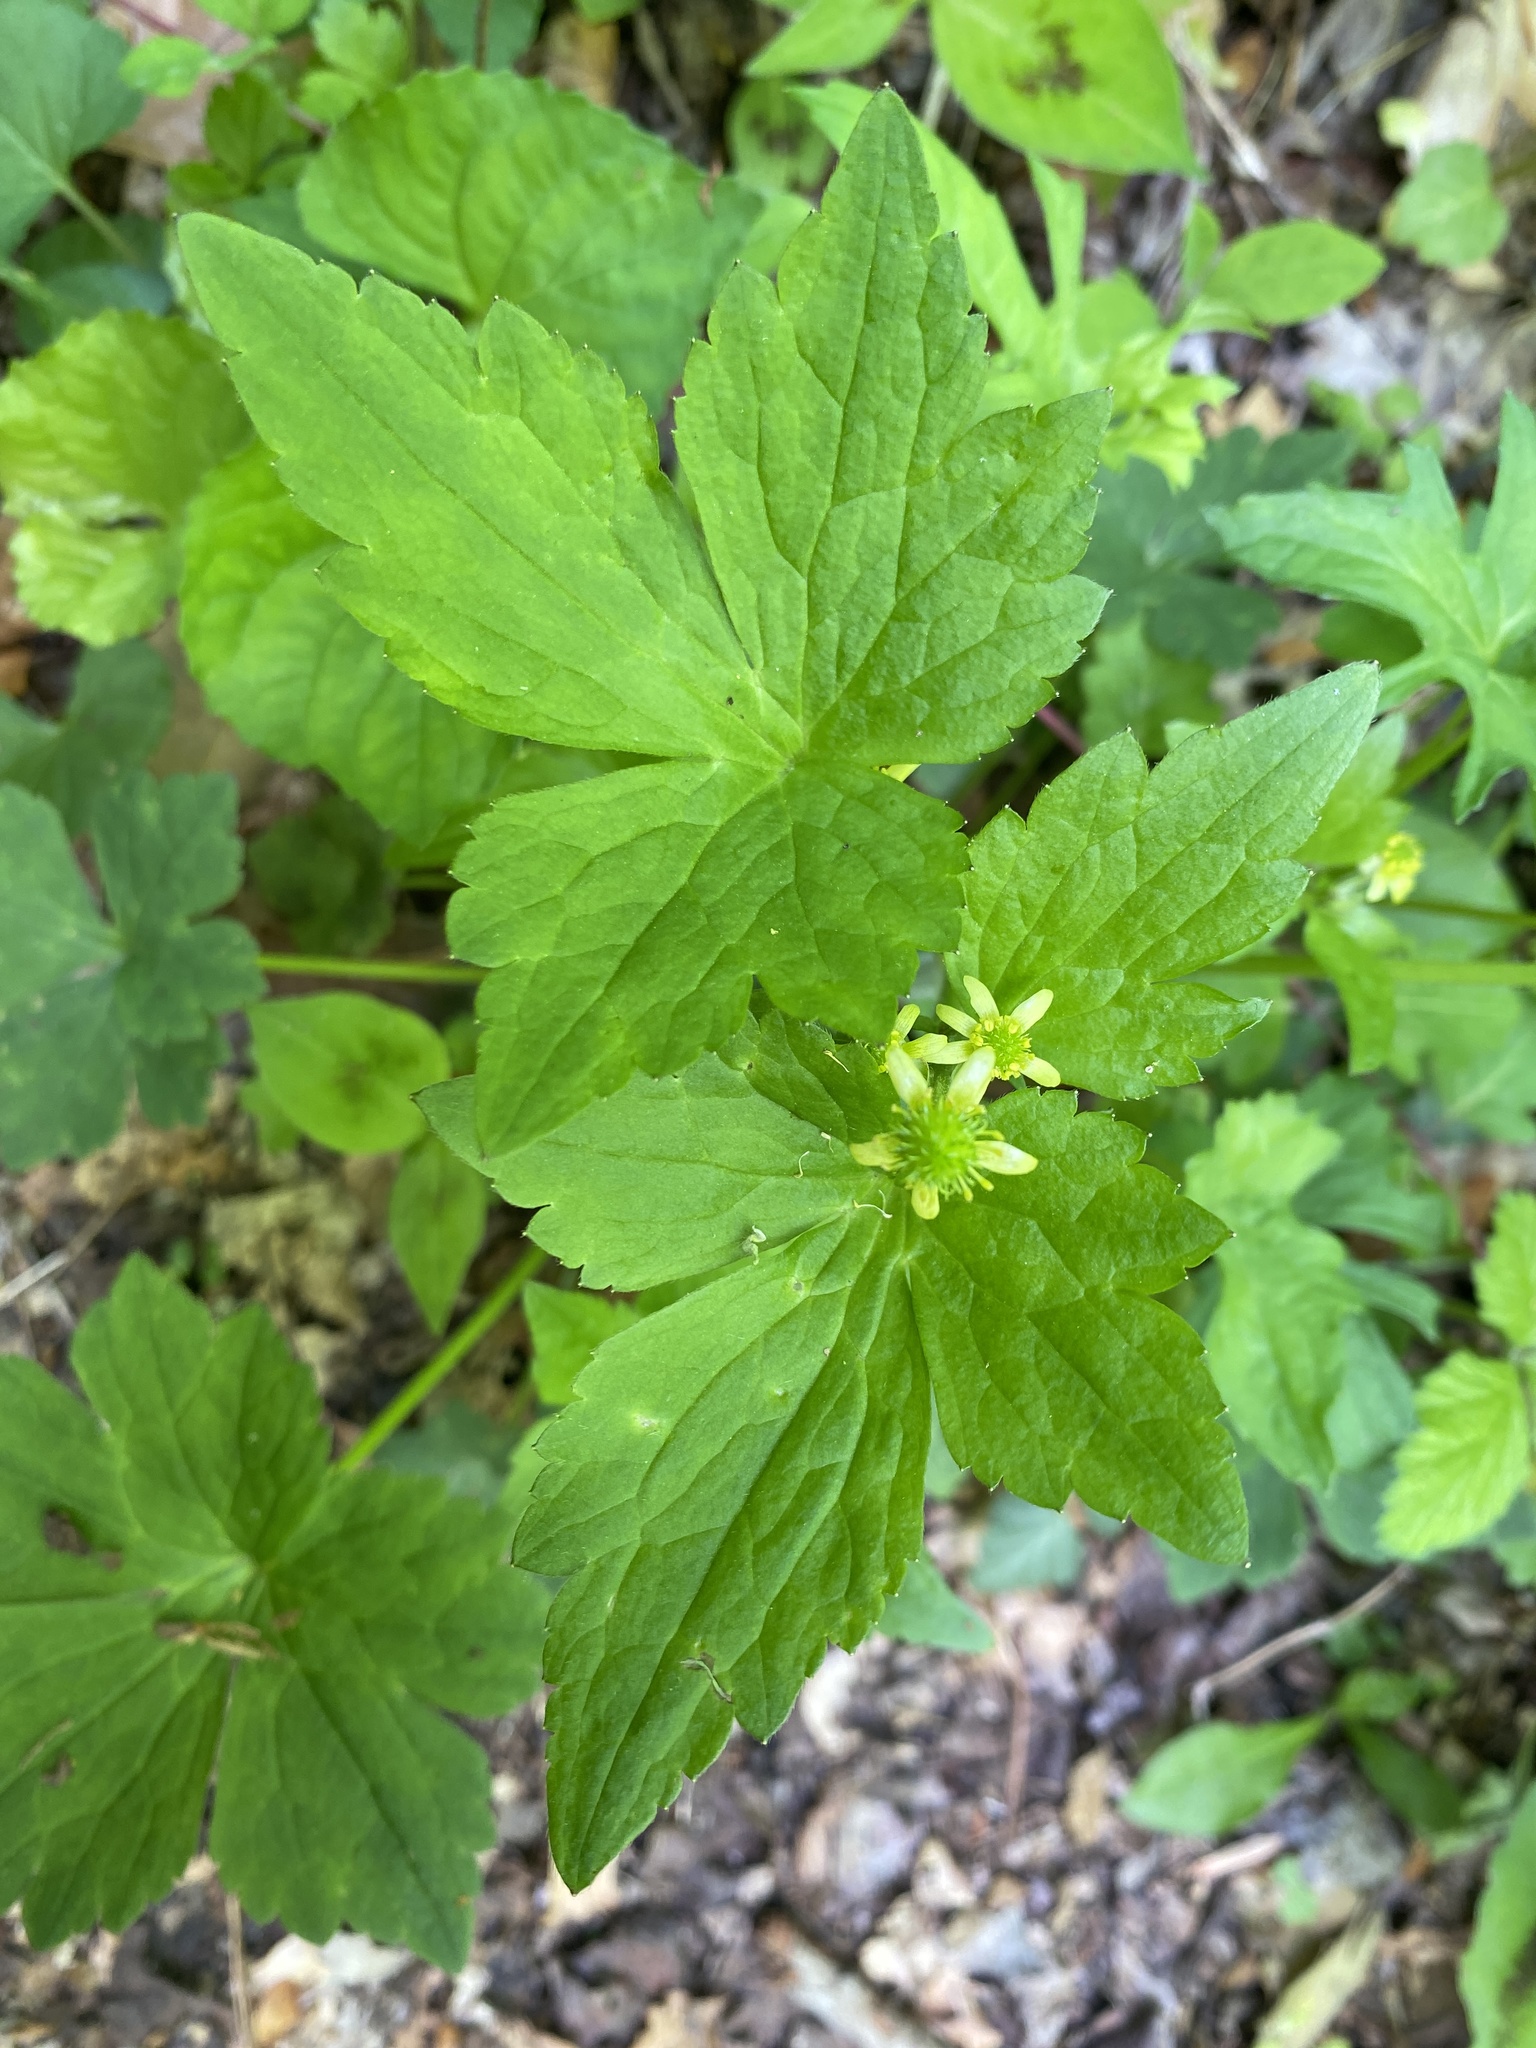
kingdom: Plantae
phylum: Tracheophyta
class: Magnoliopsida
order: Ranunculales
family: Ranunculaceae
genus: Ranunculus
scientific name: Ranunculus recurvatus
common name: Blisterwort
